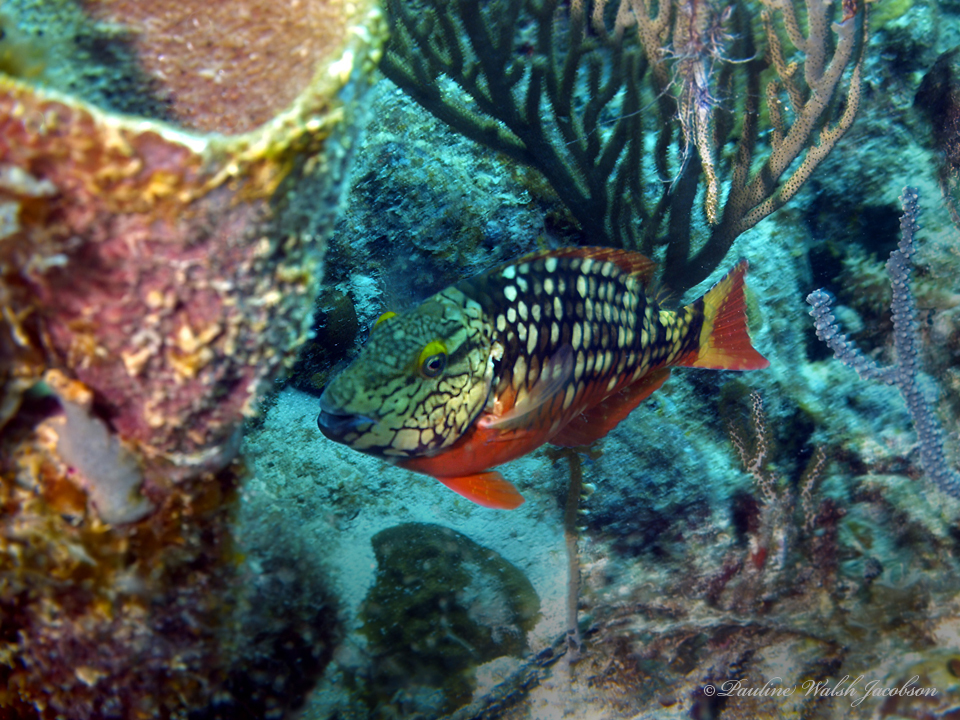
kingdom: Animalia
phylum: Chordata
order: Perciformes
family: Scaridae
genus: Sparisoma
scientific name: Sparisoma viride
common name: Stoplight parrotfish
